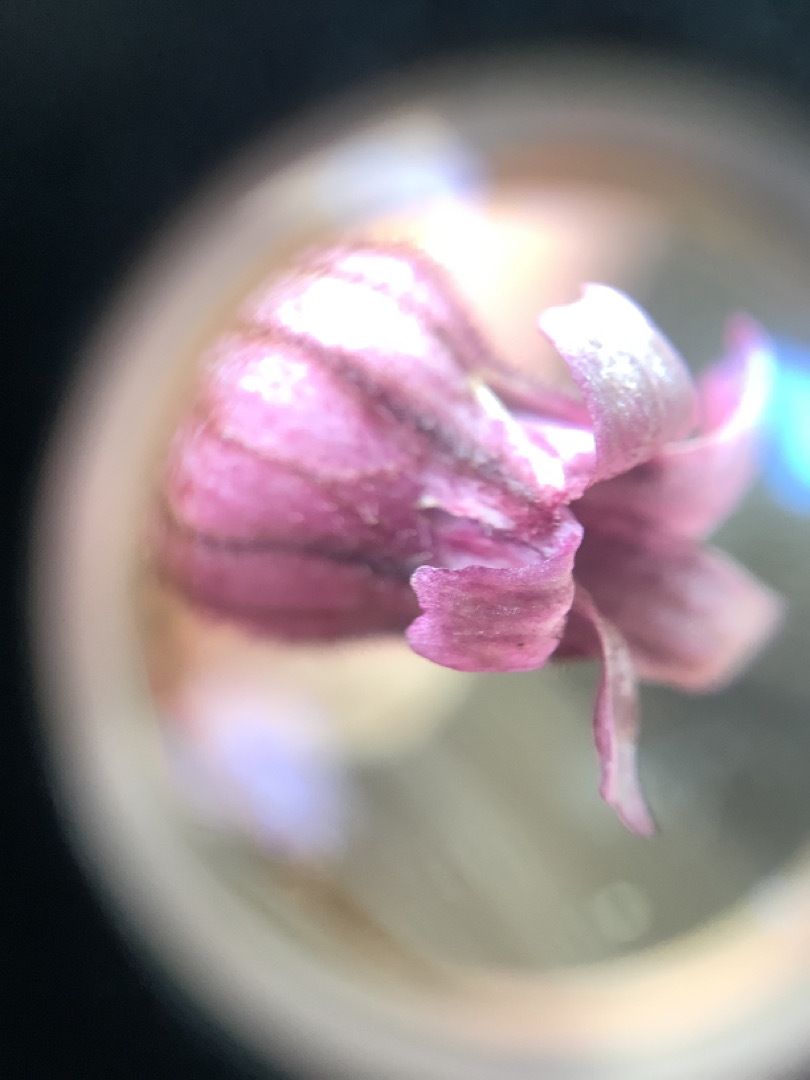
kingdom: Plantae
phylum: Tracheophyta
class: Magnoliopsida
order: Caryophyllales
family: Caryophyllaceae
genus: Silene
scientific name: Silene uralensis
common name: Nodding campion
